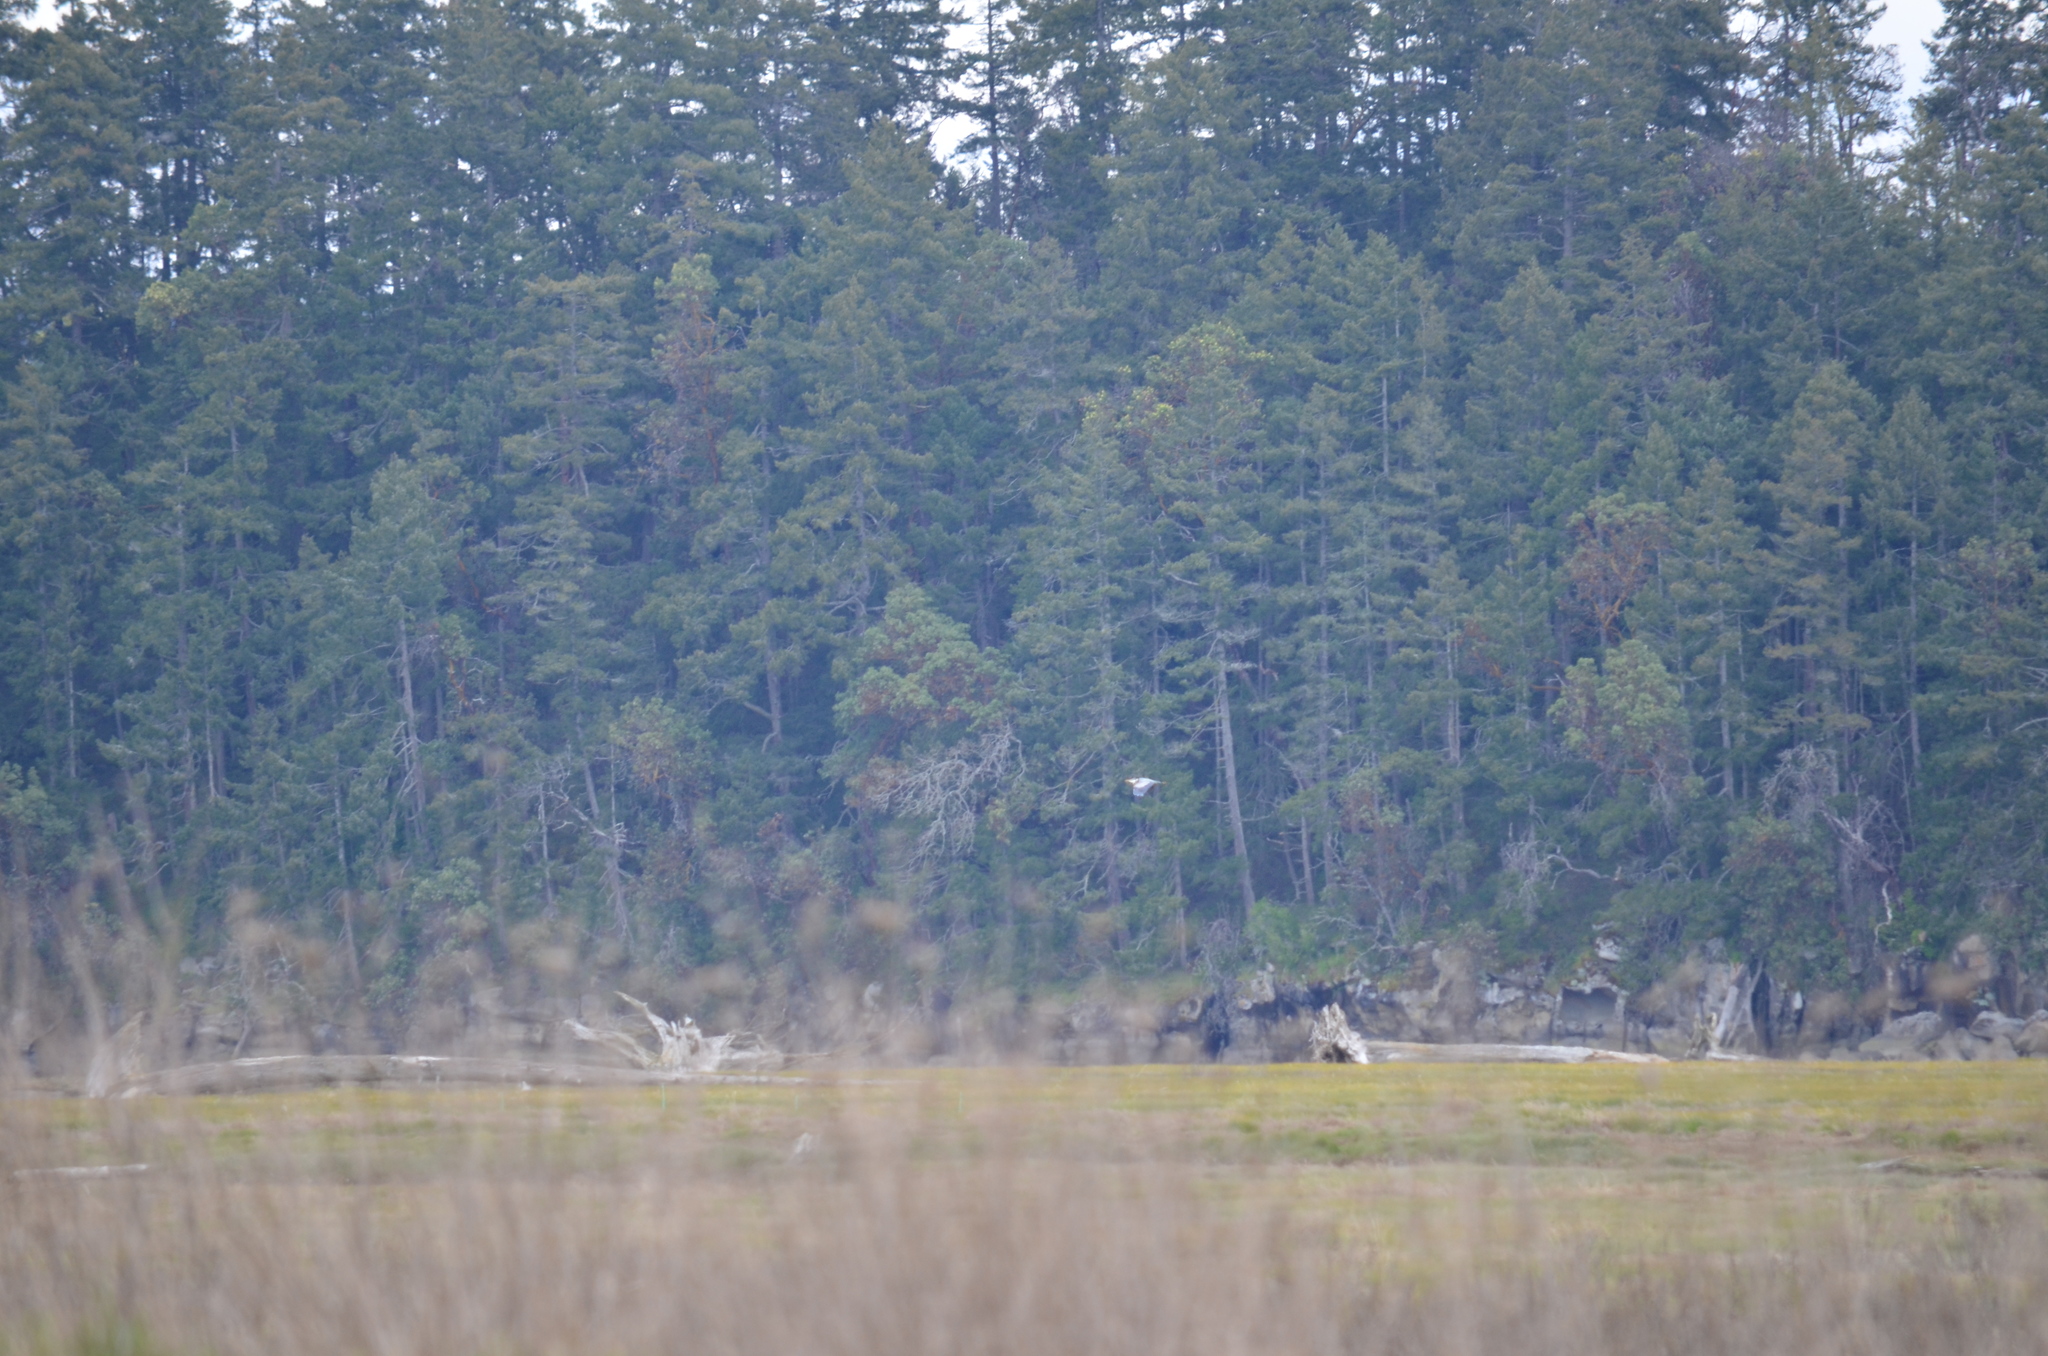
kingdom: Animalia
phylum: Chordata
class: Aves
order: Pelecaniformes
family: Ardeidae
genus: Ardea
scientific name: Ardea herodias
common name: Great blue heron
